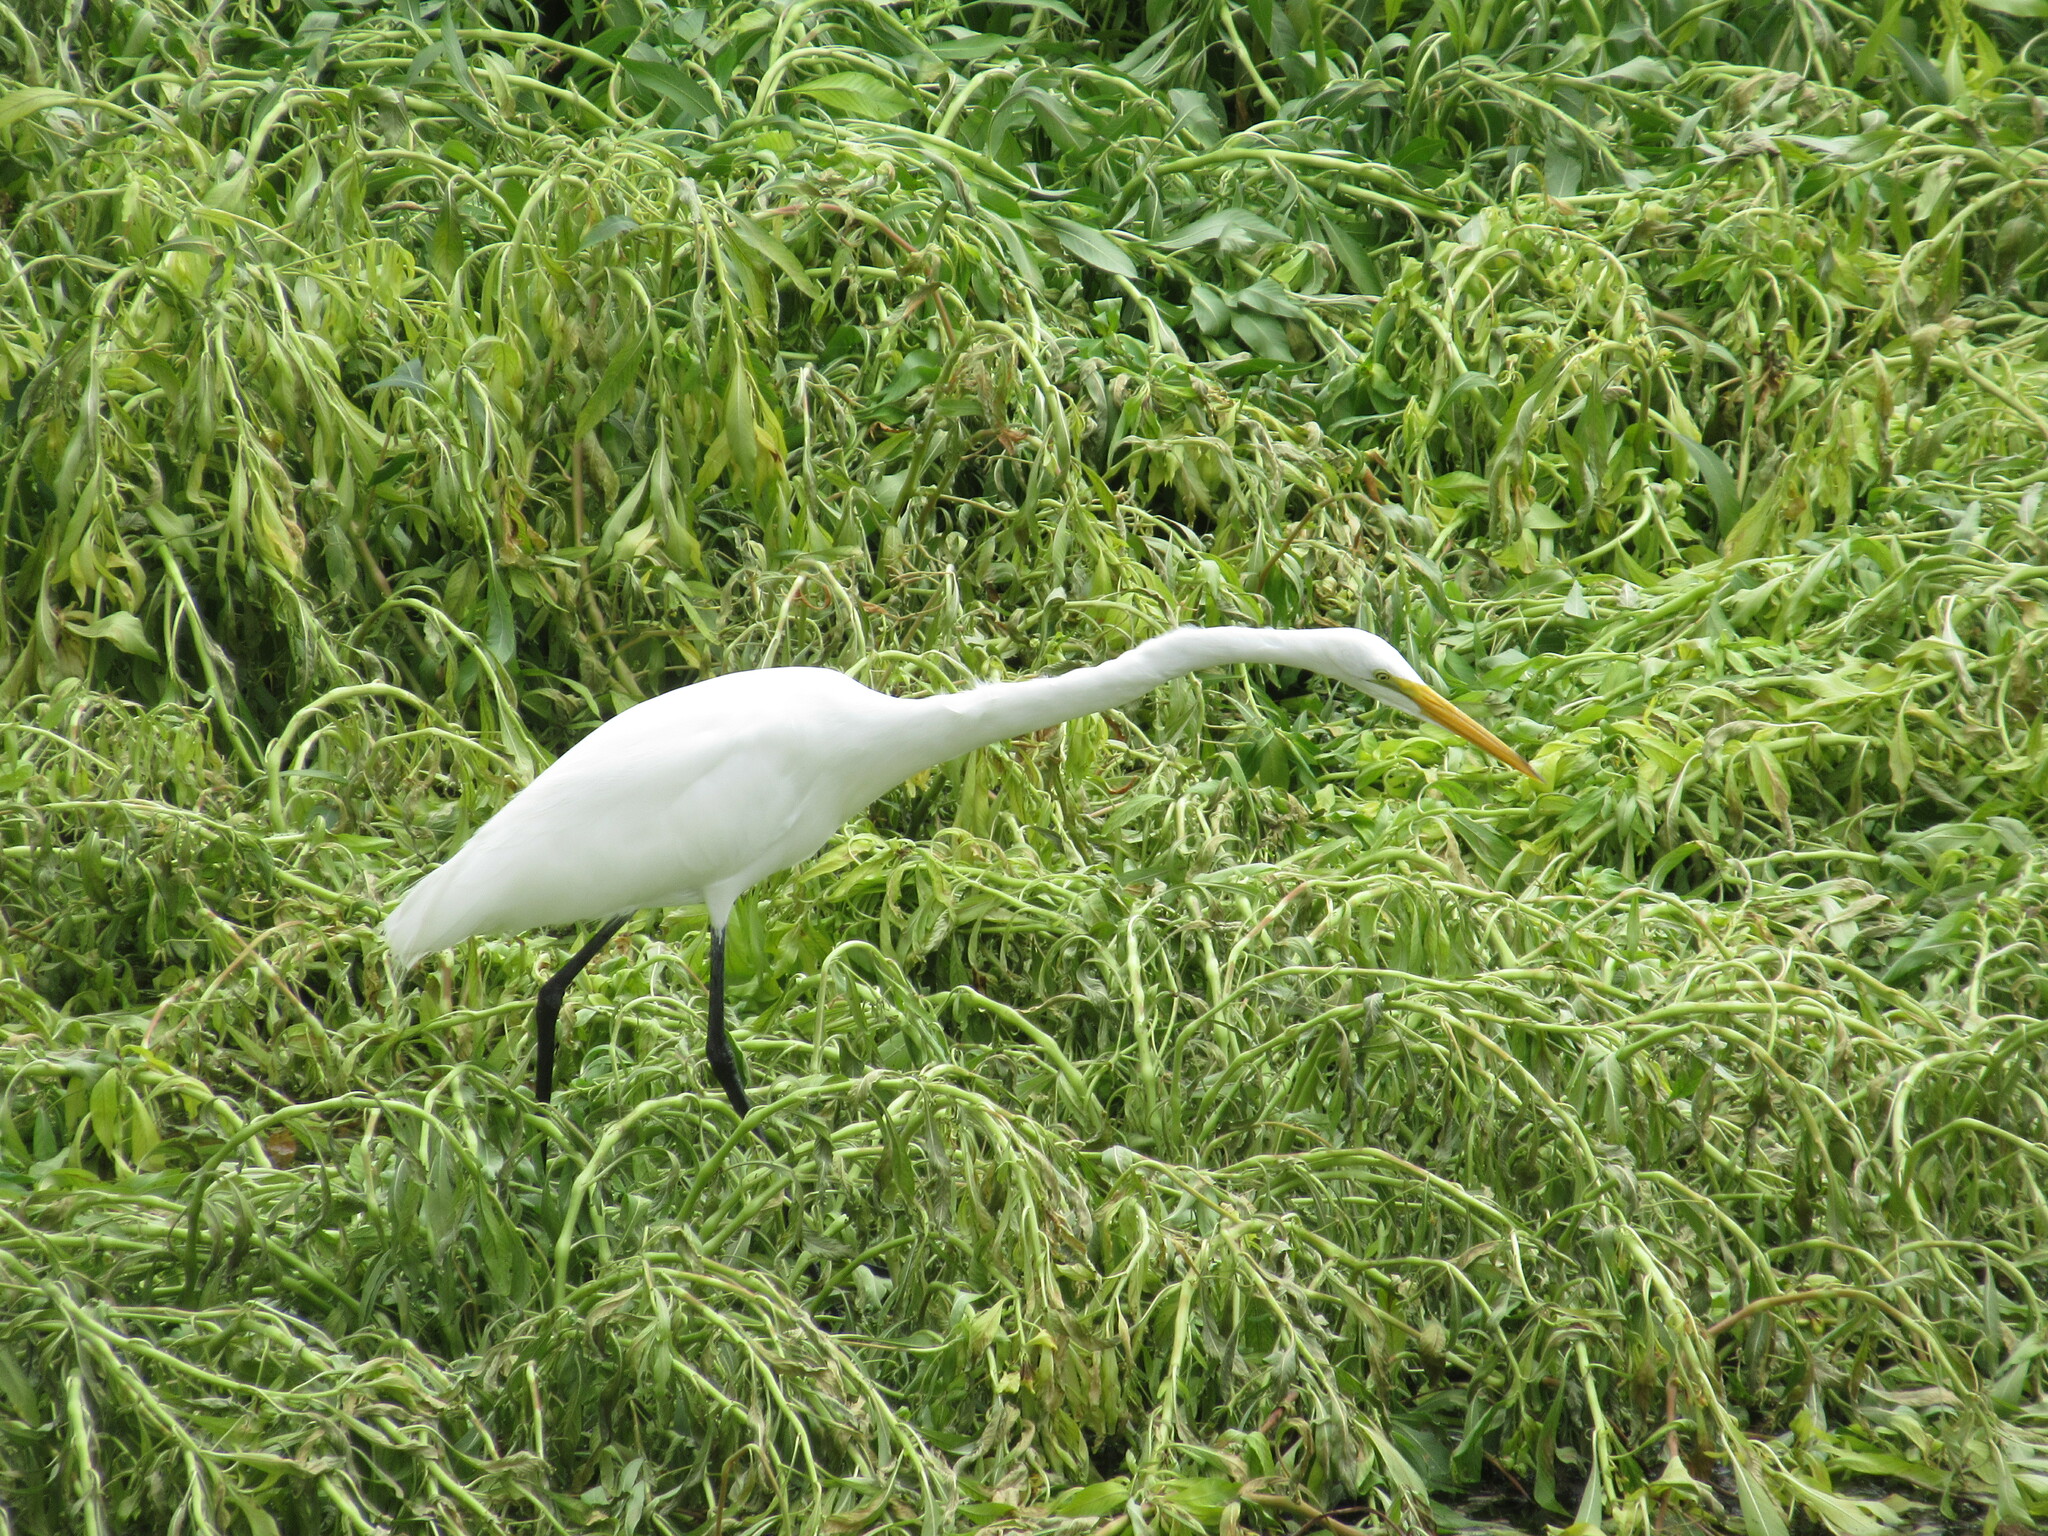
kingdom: Animalia
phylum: Chordata
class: Aves
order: Pelecaniformes
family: Ardeidae
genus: Ardea
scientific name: Ardea alba
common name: Great egret
